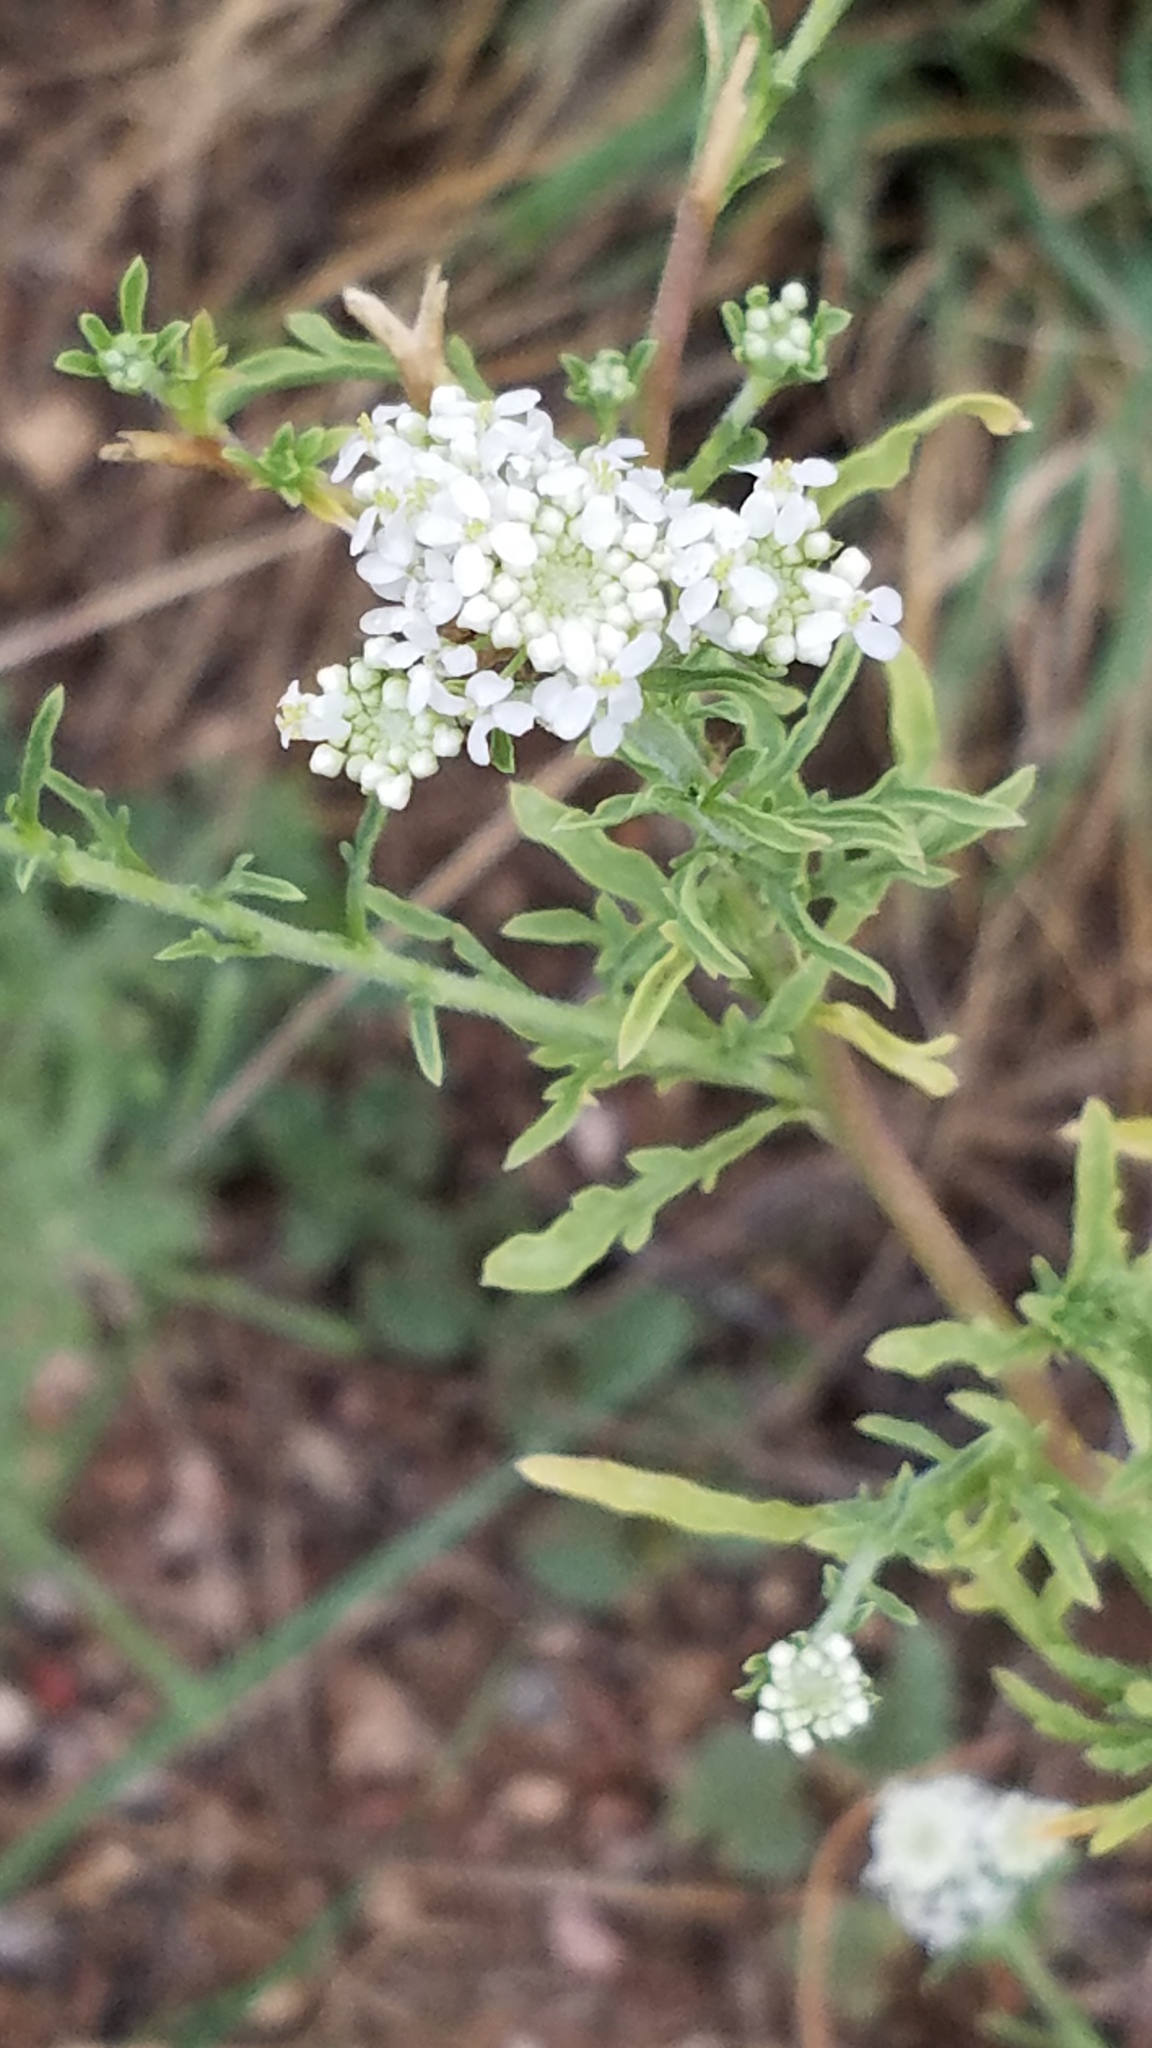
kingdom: Plantae
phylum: Tracheophyta
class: Magnoliopsida
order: Brassicales
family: Brassicaceae
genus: Lepidium
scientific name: Lepidium thurberi
